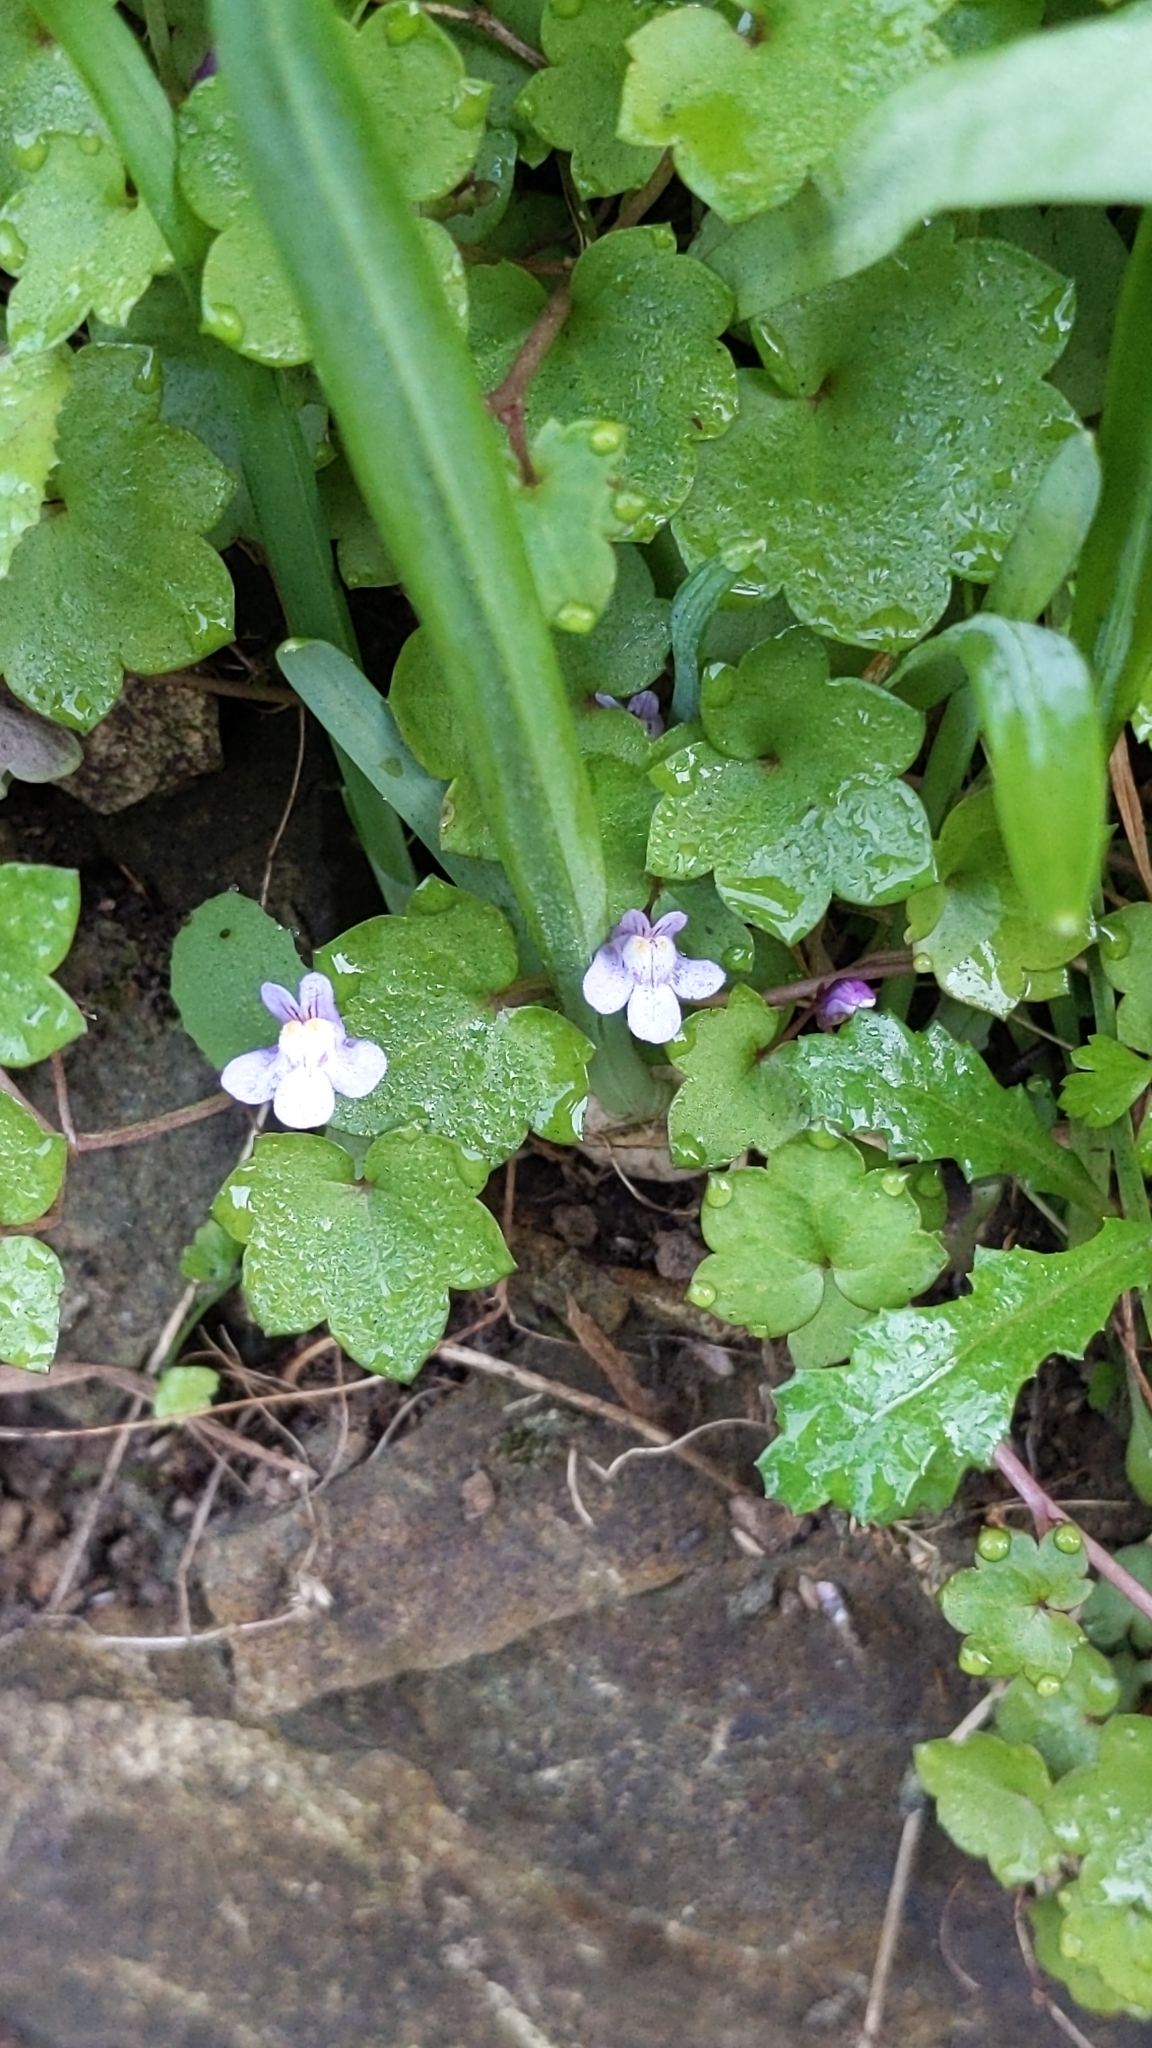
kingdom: Plantae
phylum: Tracheophyta
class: Magnoliopsida
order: Lamiales
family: Plantaginaceae
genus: Cymbalaria
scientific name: Cymbalaria muralis
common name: Ivy-leaved toadflax
